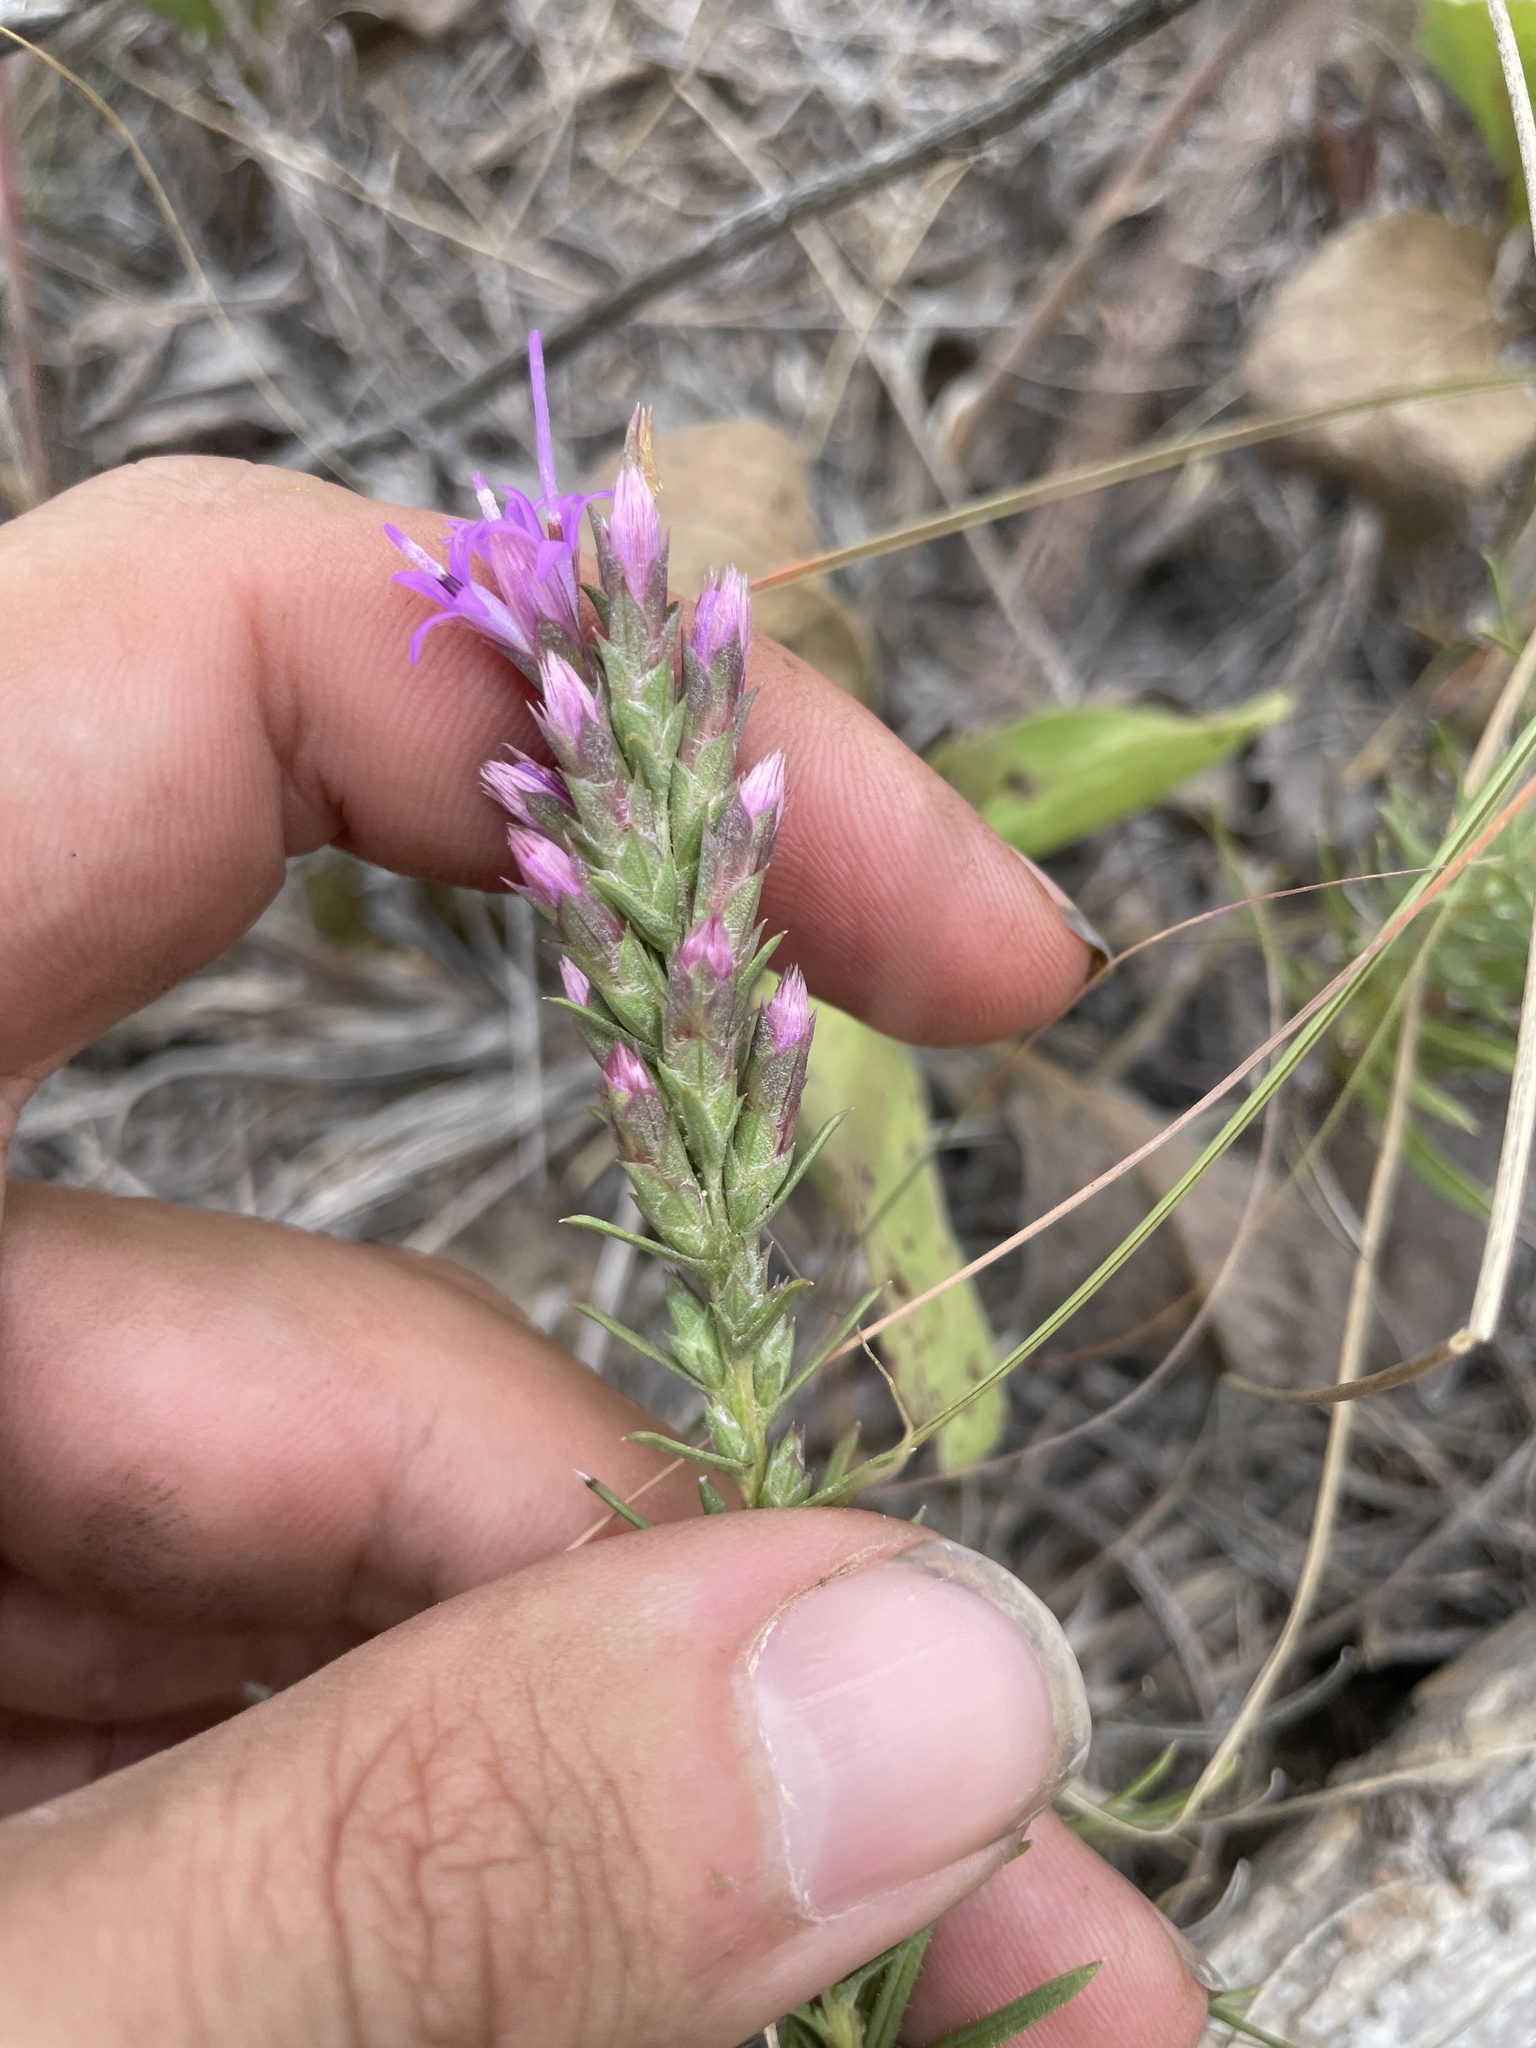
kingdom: Plantae
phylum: Tracheophyta
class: Magnoliopsida
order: Asterales
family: Asteraceae
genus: Liatris
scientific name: Liatris punctata
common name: Dotted gayfeather
